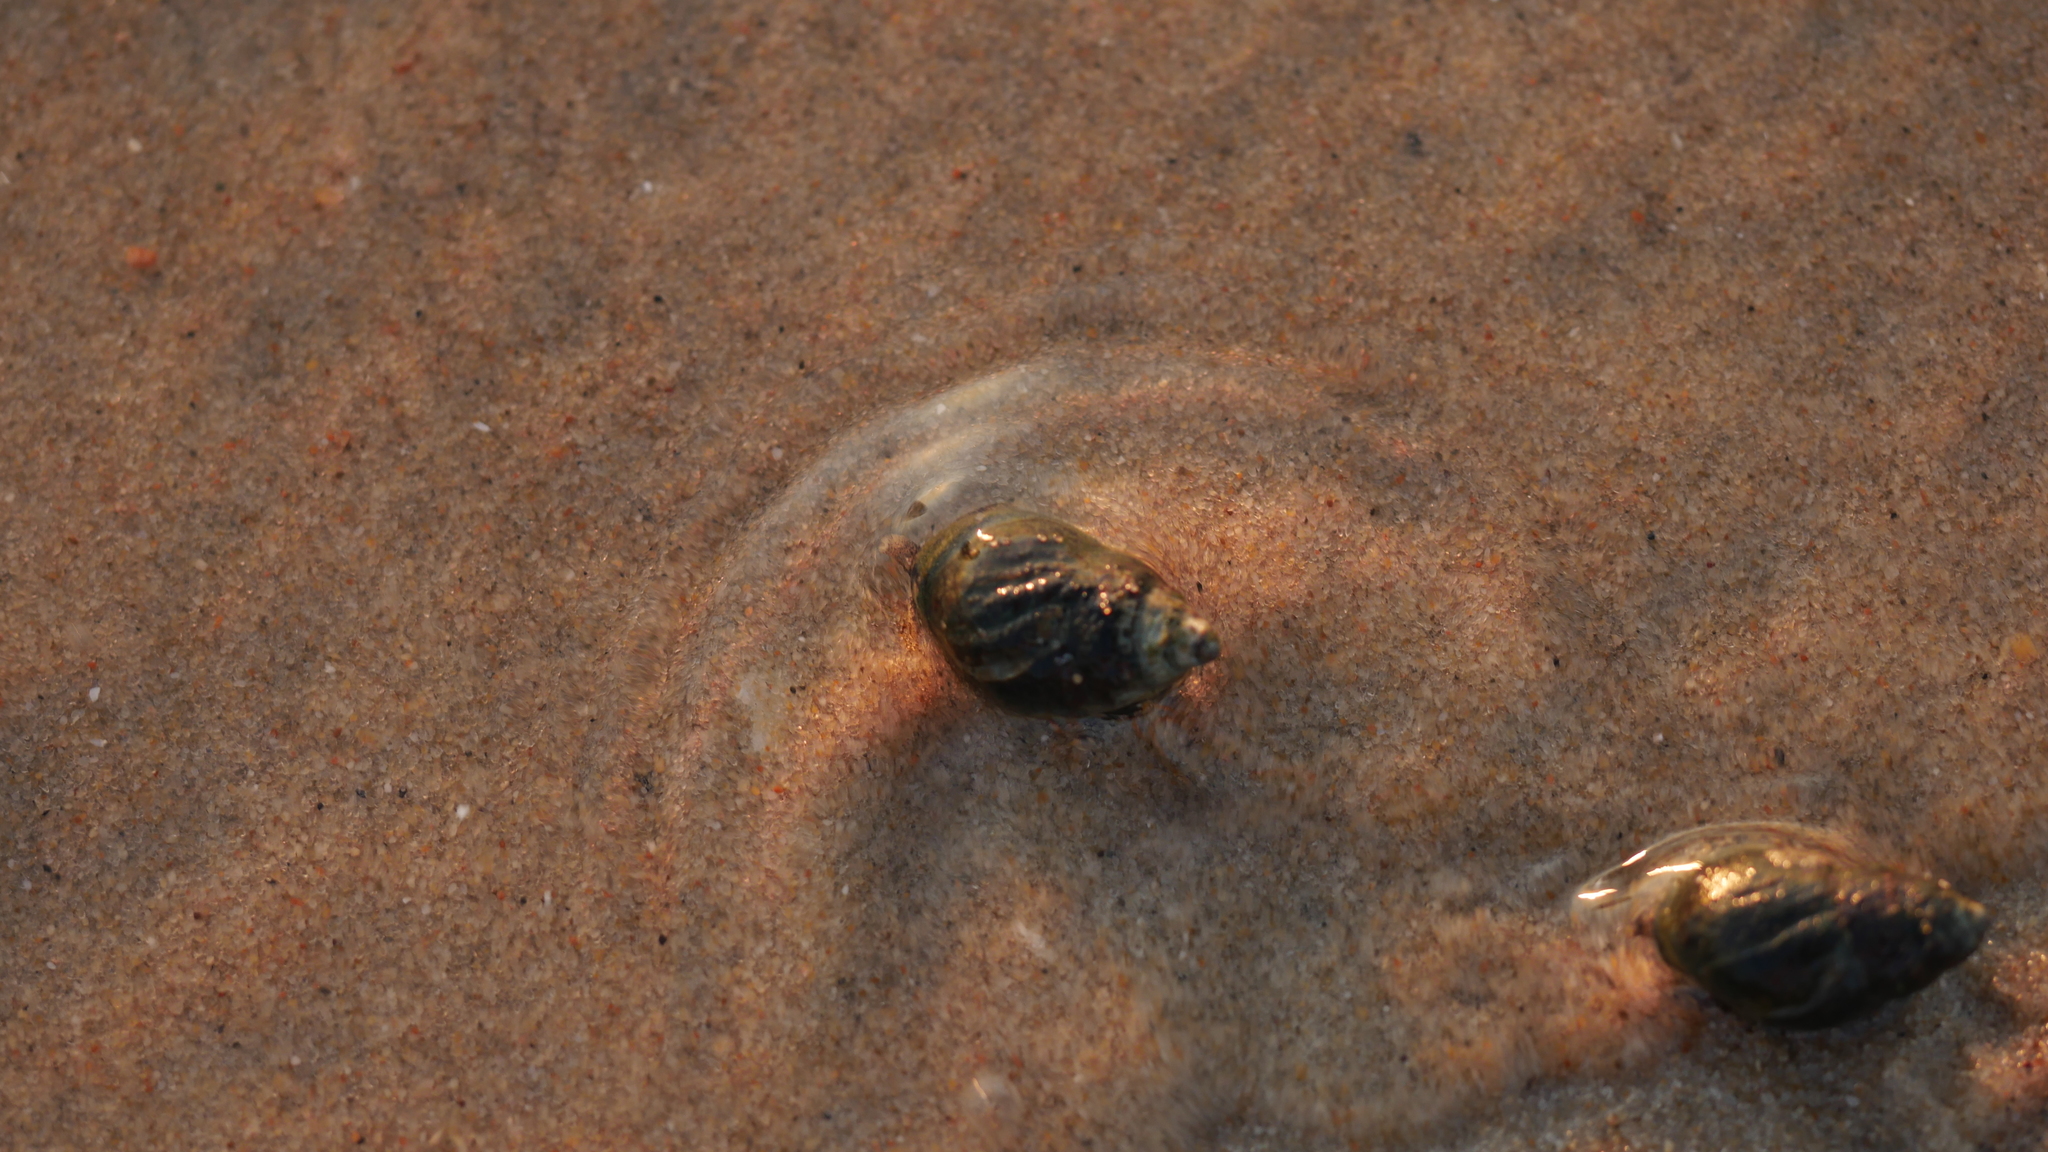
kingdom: Animalia
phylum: Mollusca
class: Gastropoda
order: Neogastropoda
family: Nassariidae
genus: Ilyanassa
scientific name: Ilyanassa obsoleta
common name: Eastern mudsnail
